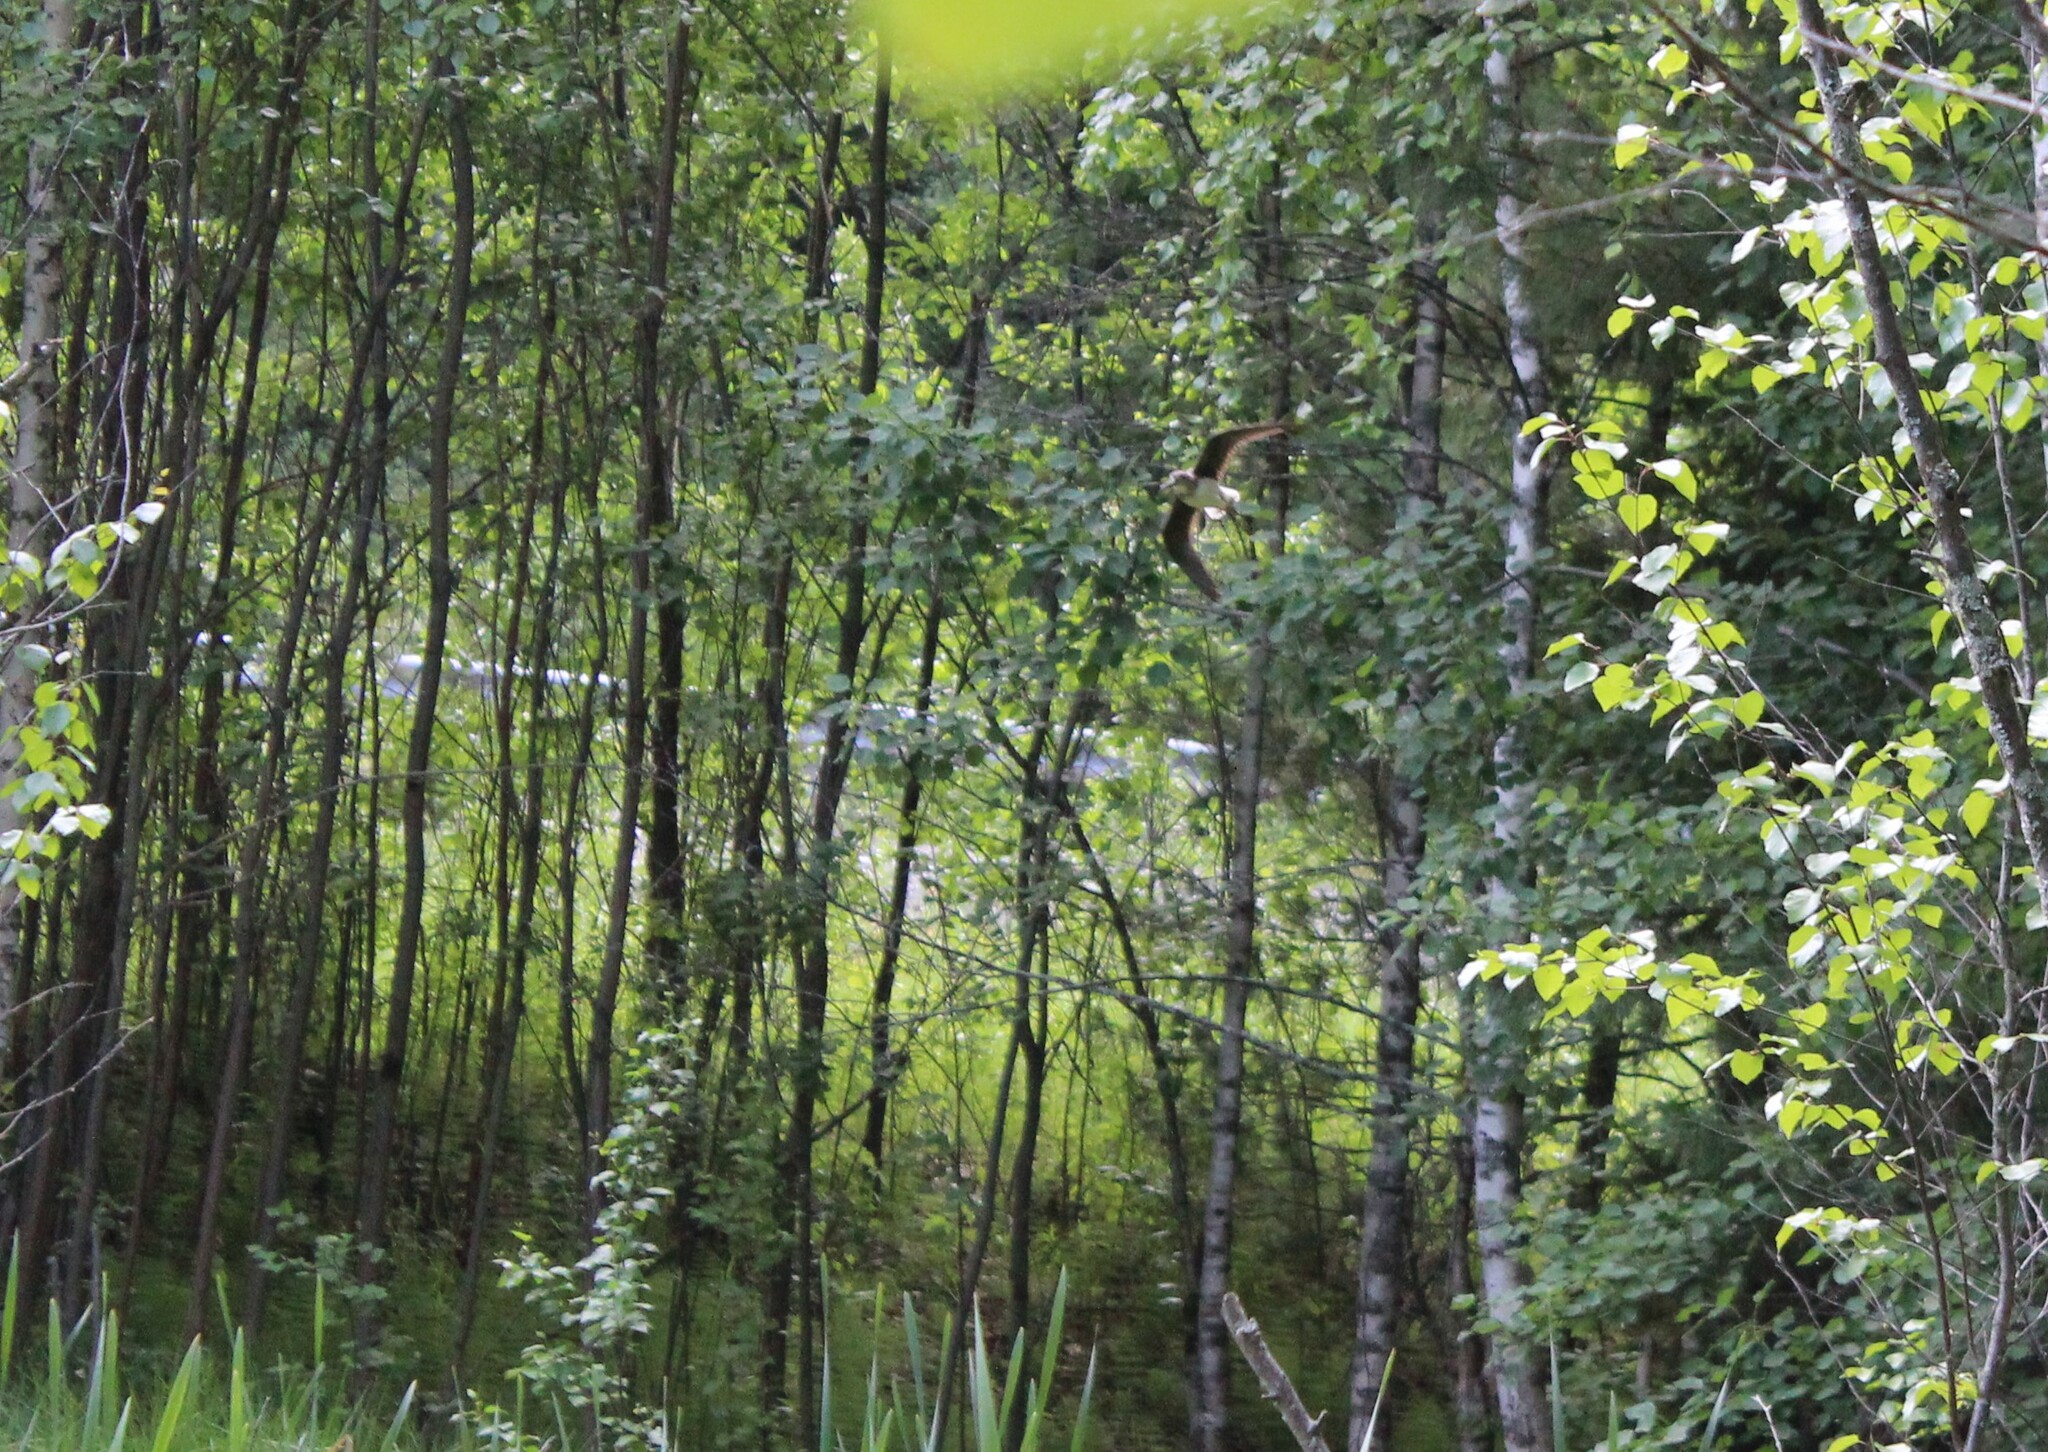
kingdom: Animalia
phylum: Chordata
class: Aves
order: Charadriiformes
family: Scolopacidae
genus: Tringa
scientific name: Tringa ochropus
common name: Green sandpiper
